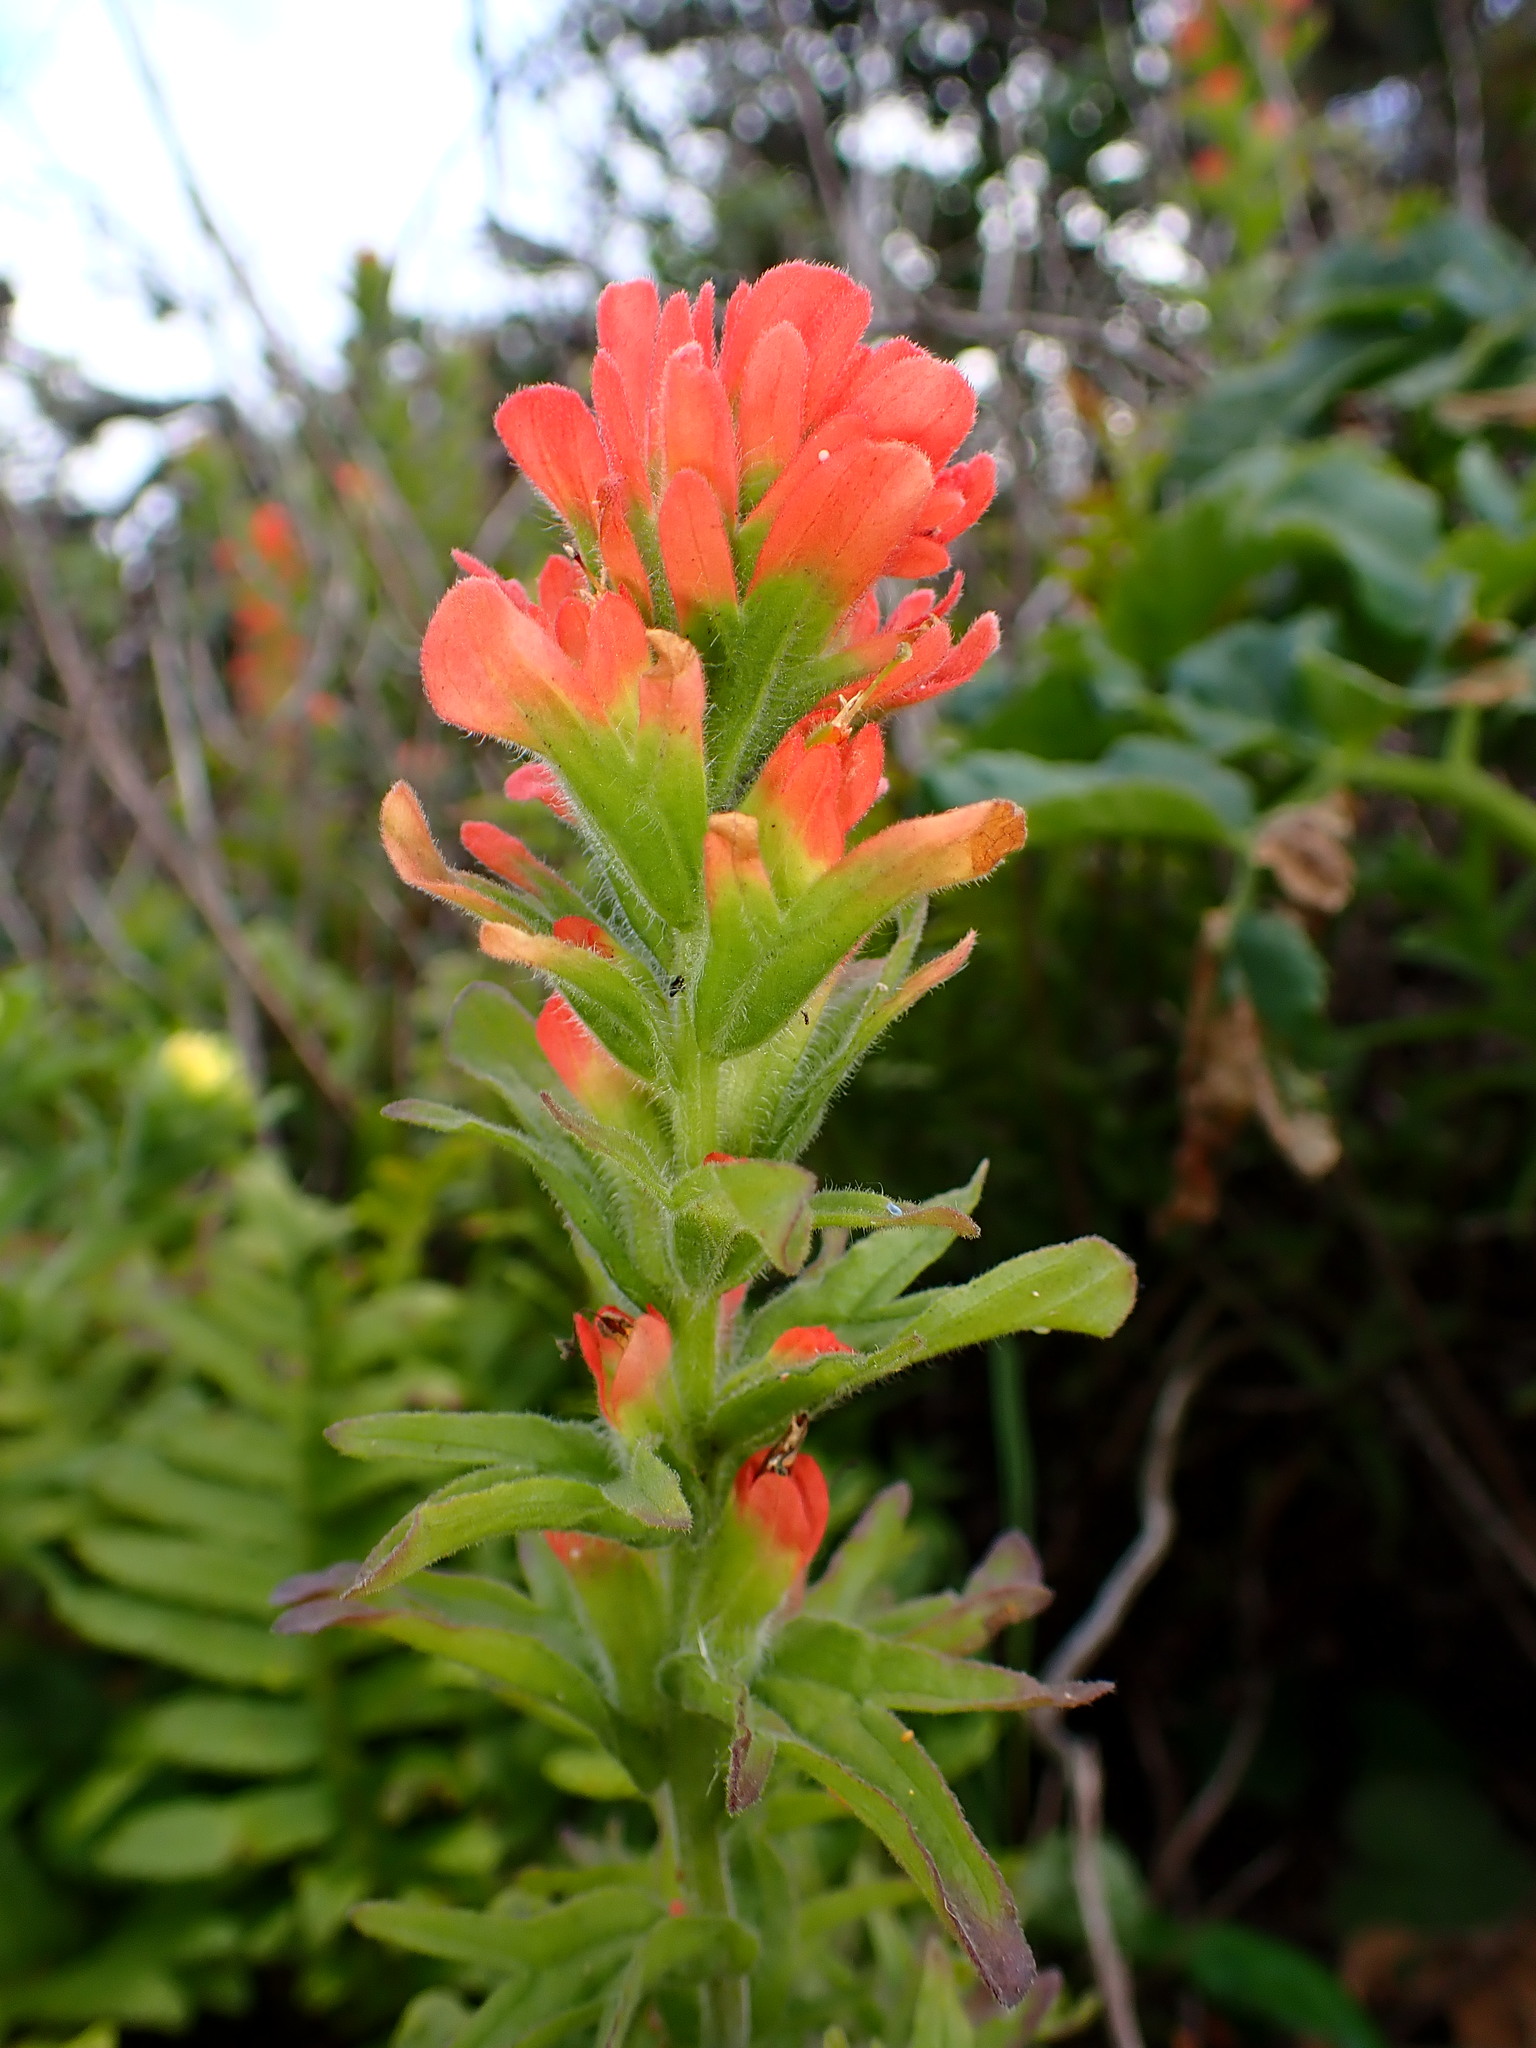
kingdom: Plantae
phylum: Tracheophyta
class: Magnoliopsida
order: Lamiales
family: Orobanchaceae
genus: Castilleja
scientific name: Castilleja wightii
